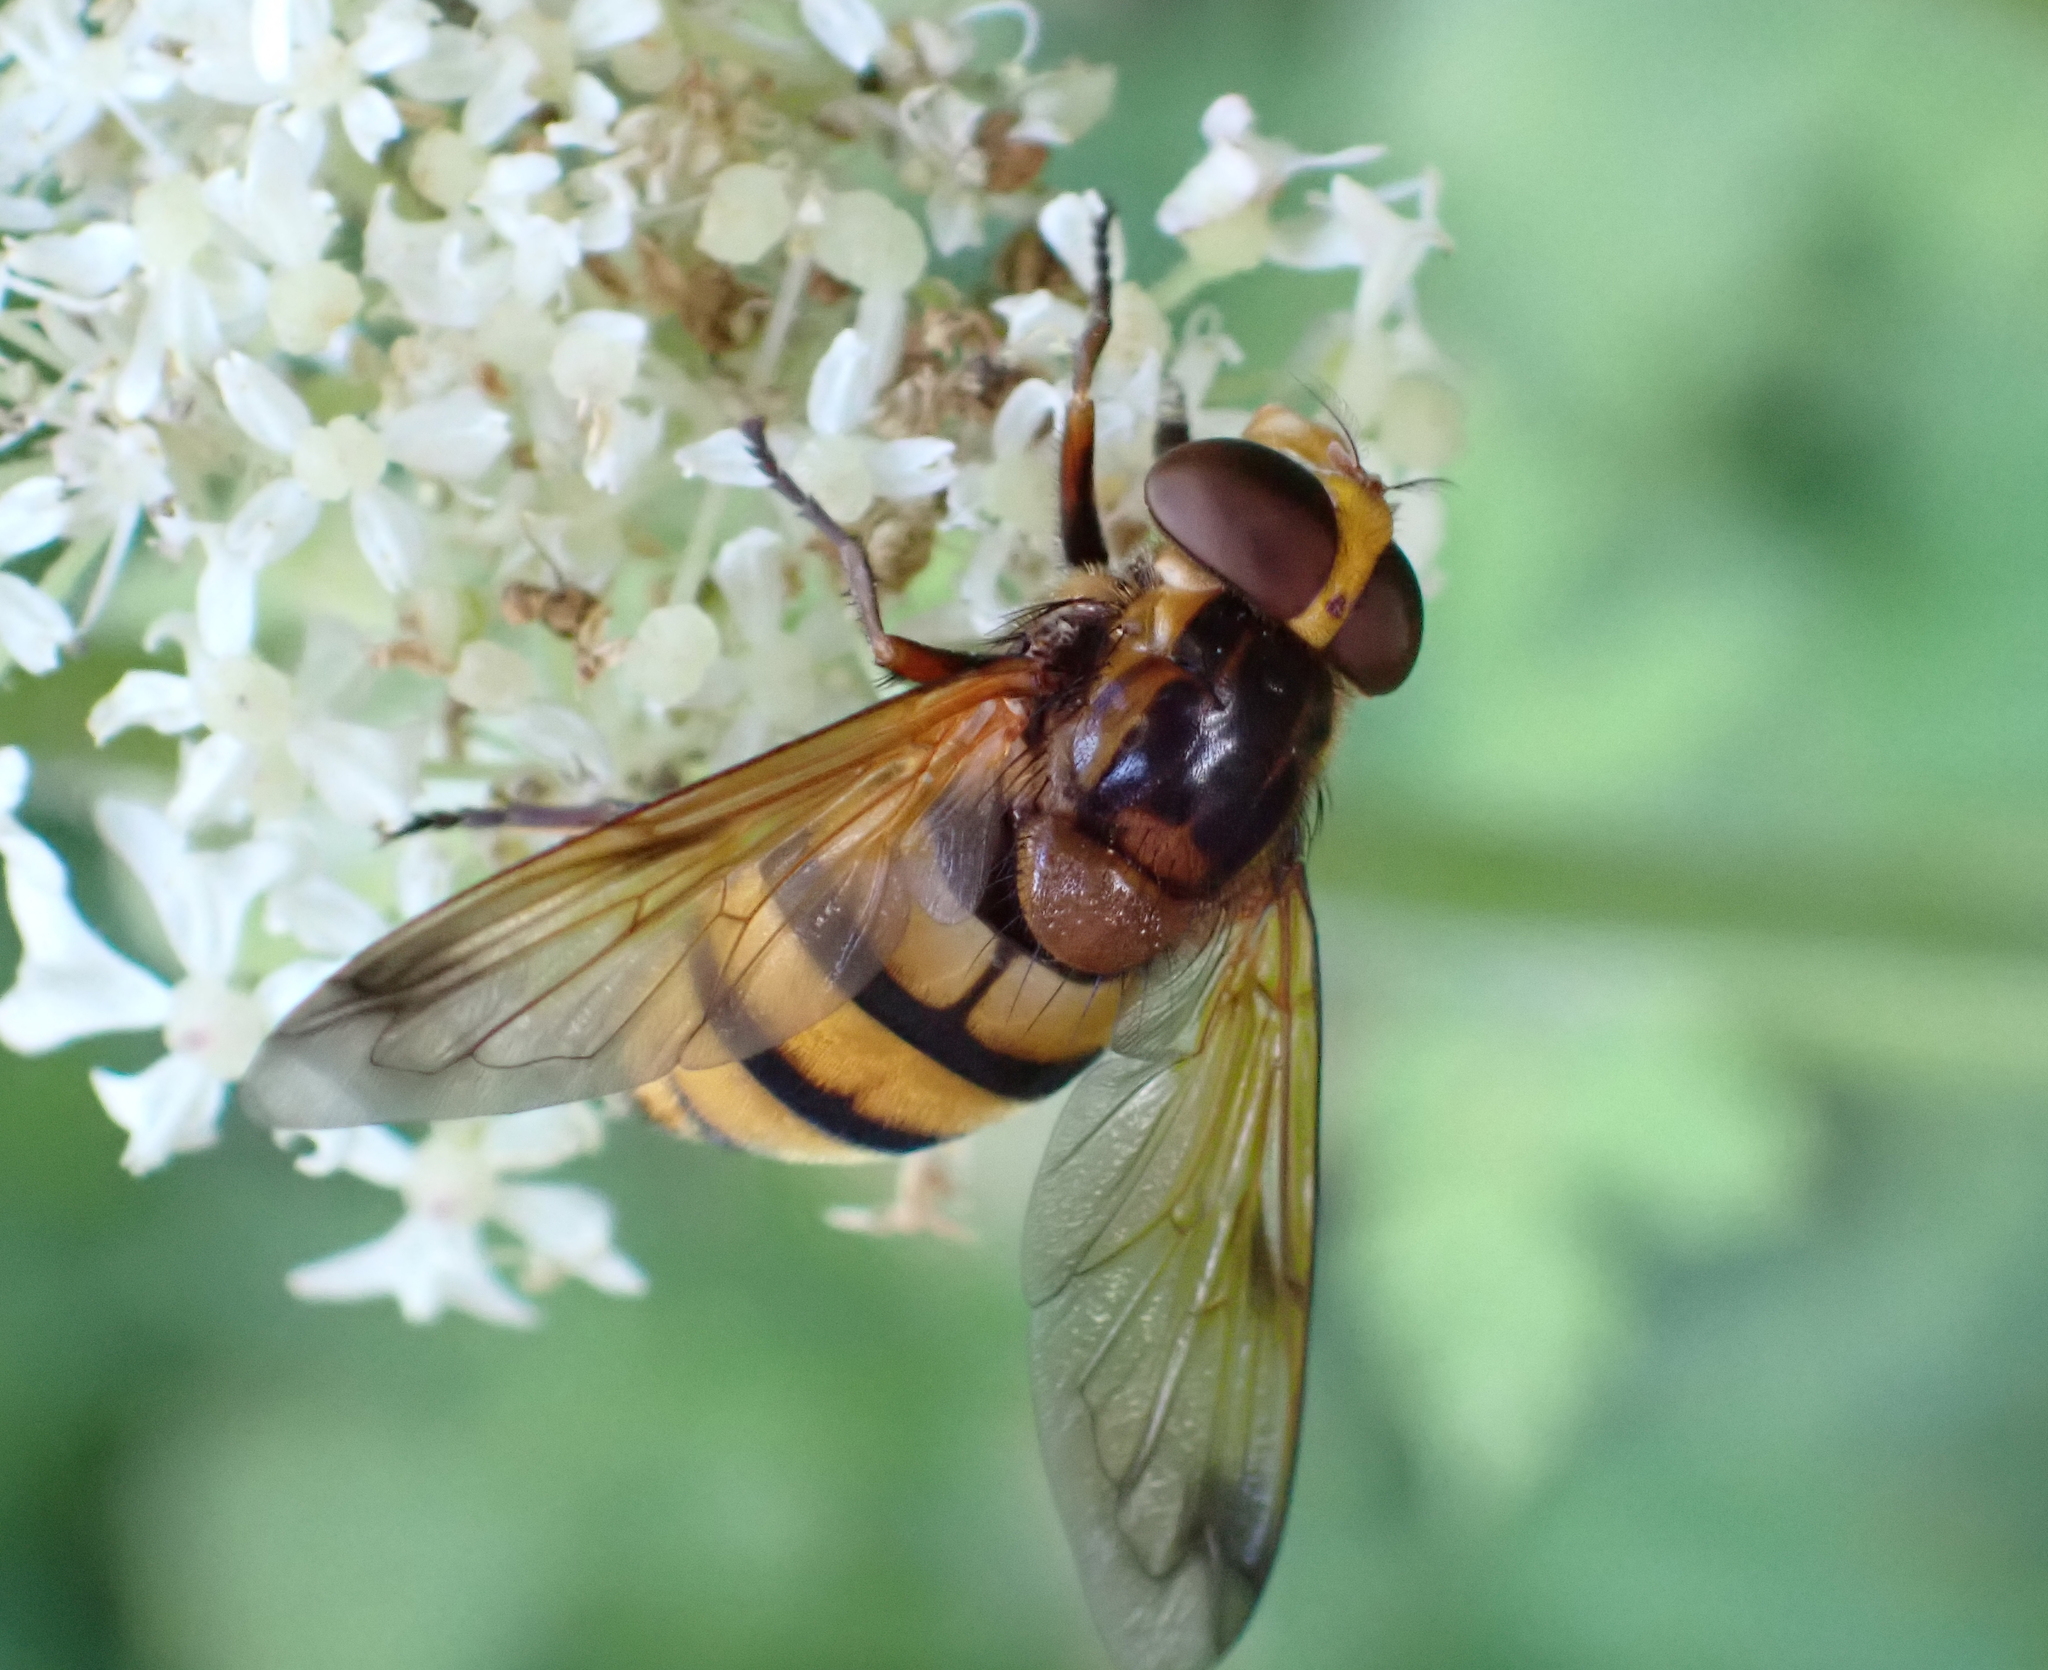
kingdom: Animalia
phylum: Arthropoda
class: Insecta
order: Diptera
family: Syrphidae
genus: Volucella
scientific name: Volucella inanis
